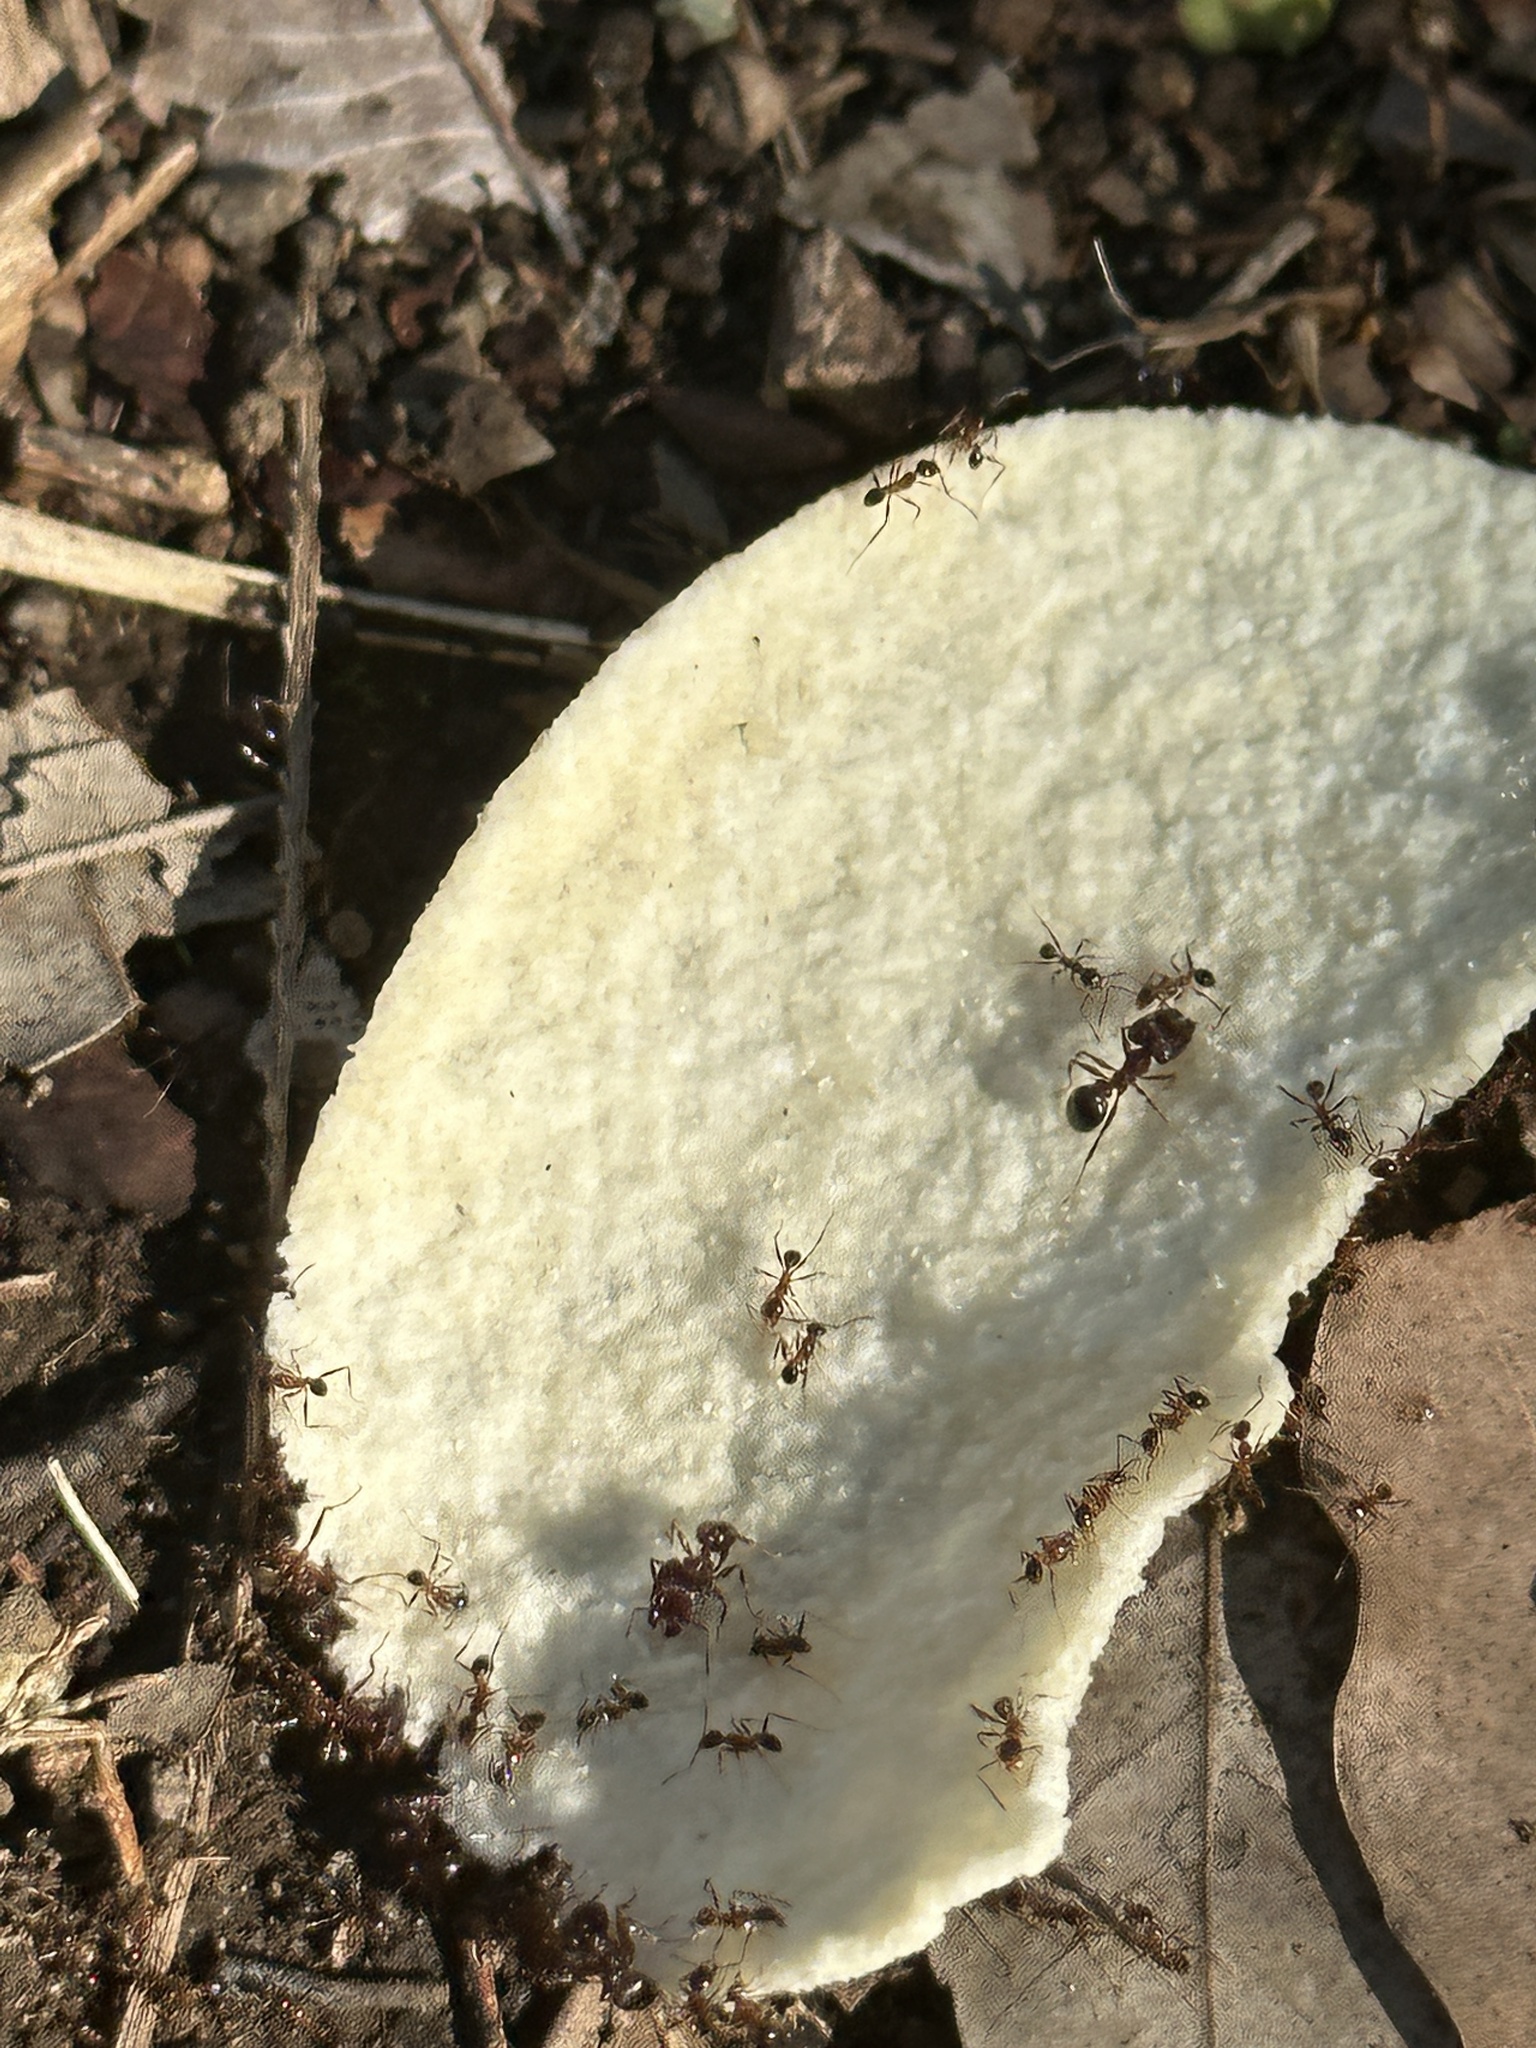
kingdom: Animalia
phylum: Arthropoda
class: Insecta
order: Hymenoptera
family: Formicidae
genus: Pheidole
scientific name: Pheidole noda
